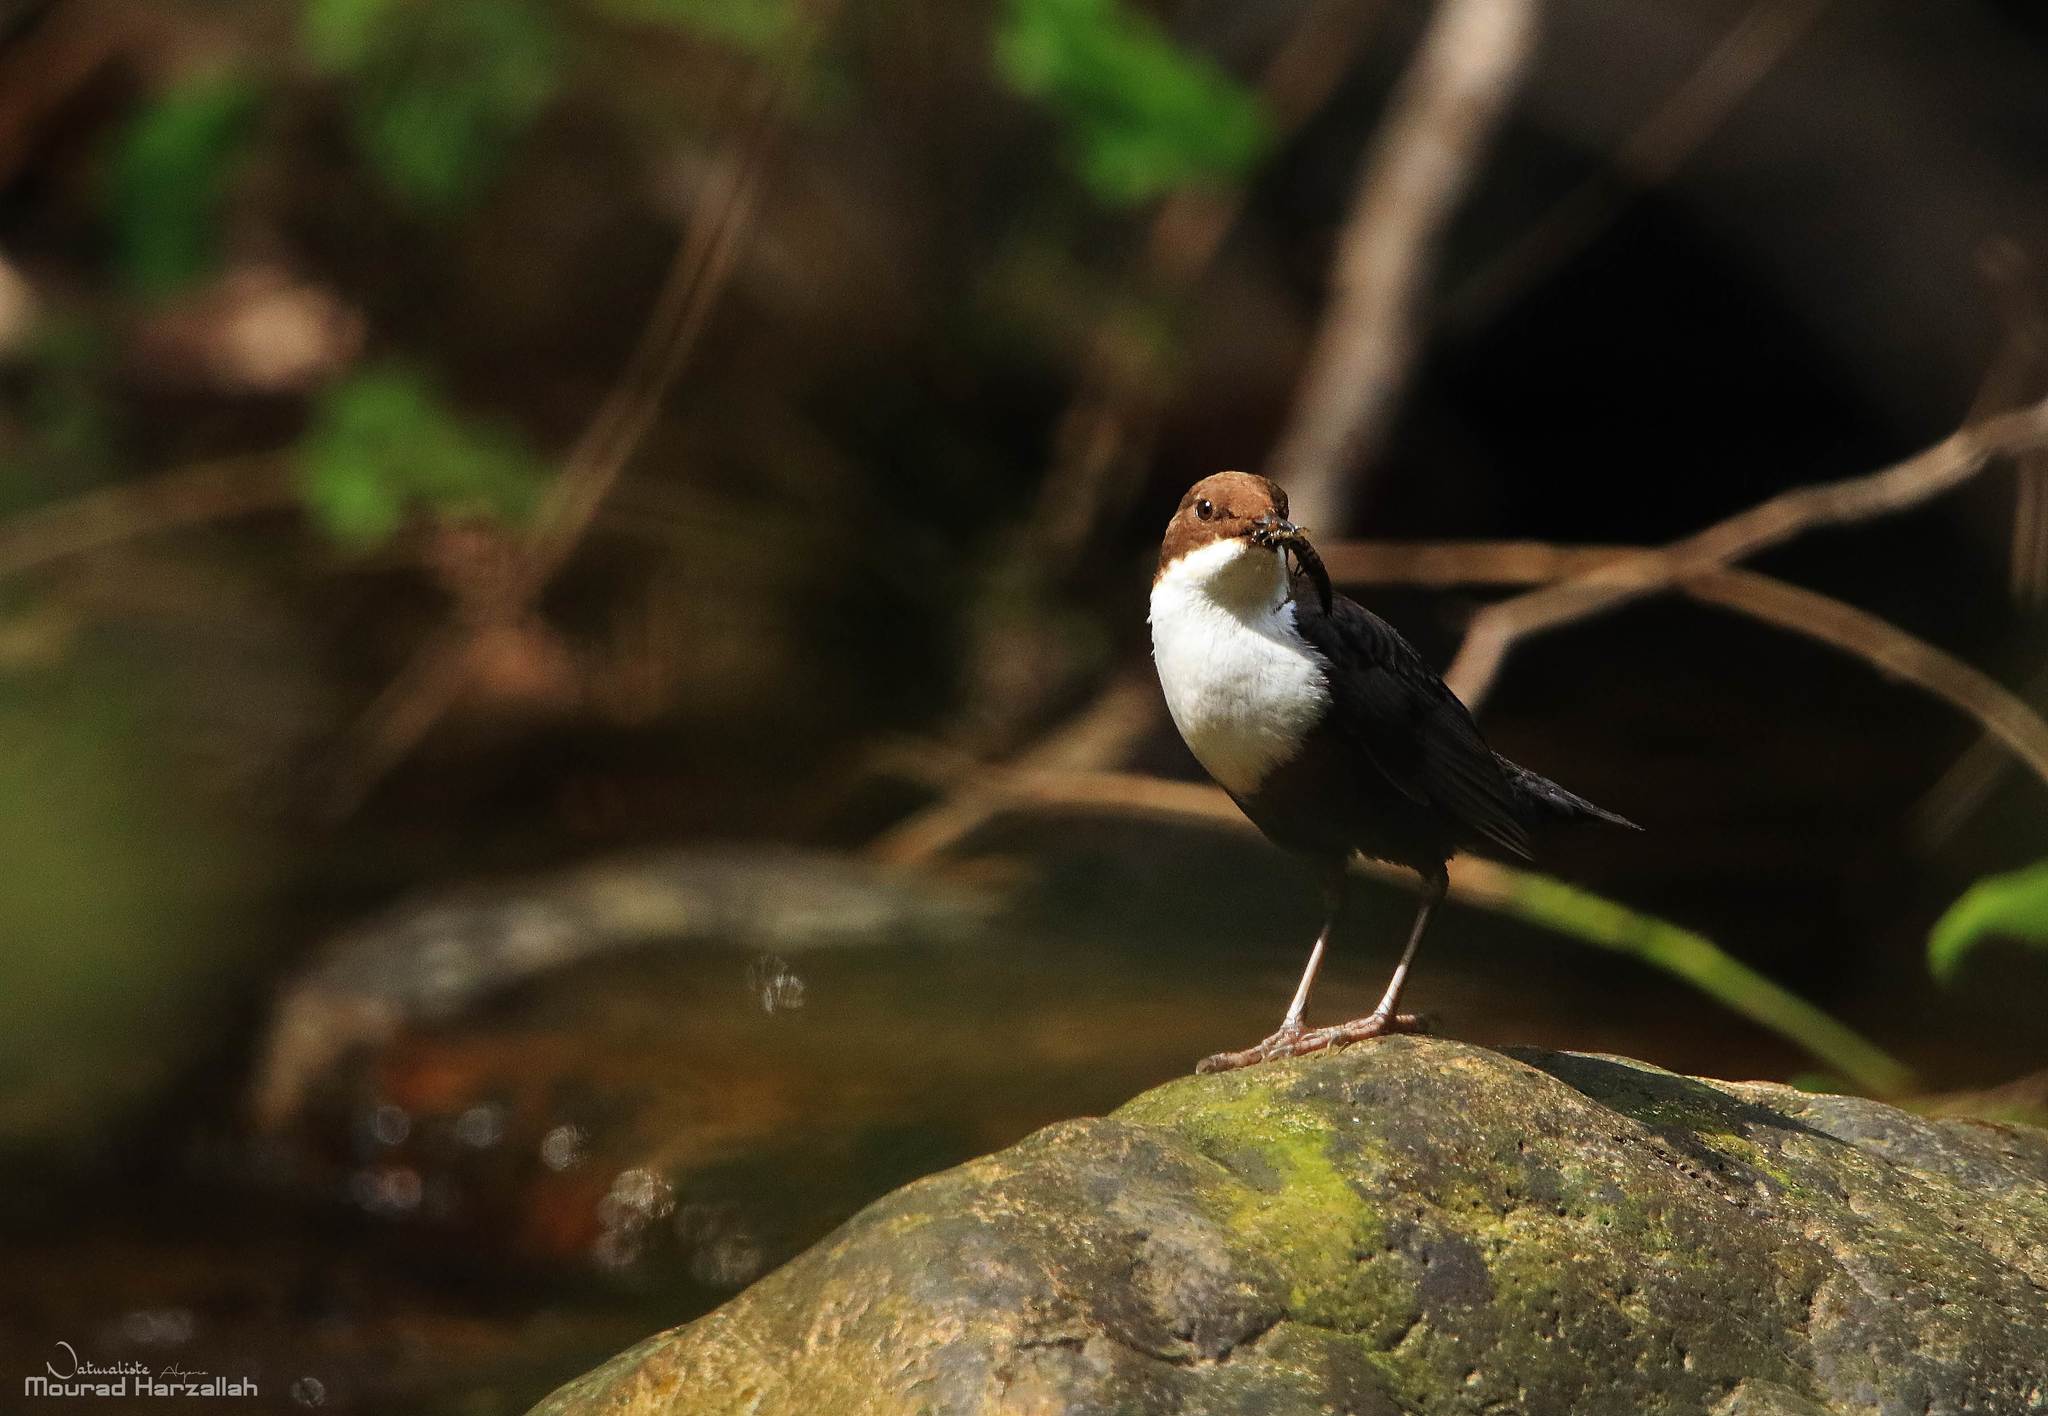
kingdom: Animalia
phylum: Chordata
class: Aves
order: Passeriformes
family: Cinclidae
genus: Cinclus
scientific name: Cinclus cinclus
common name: White-throated dipper
